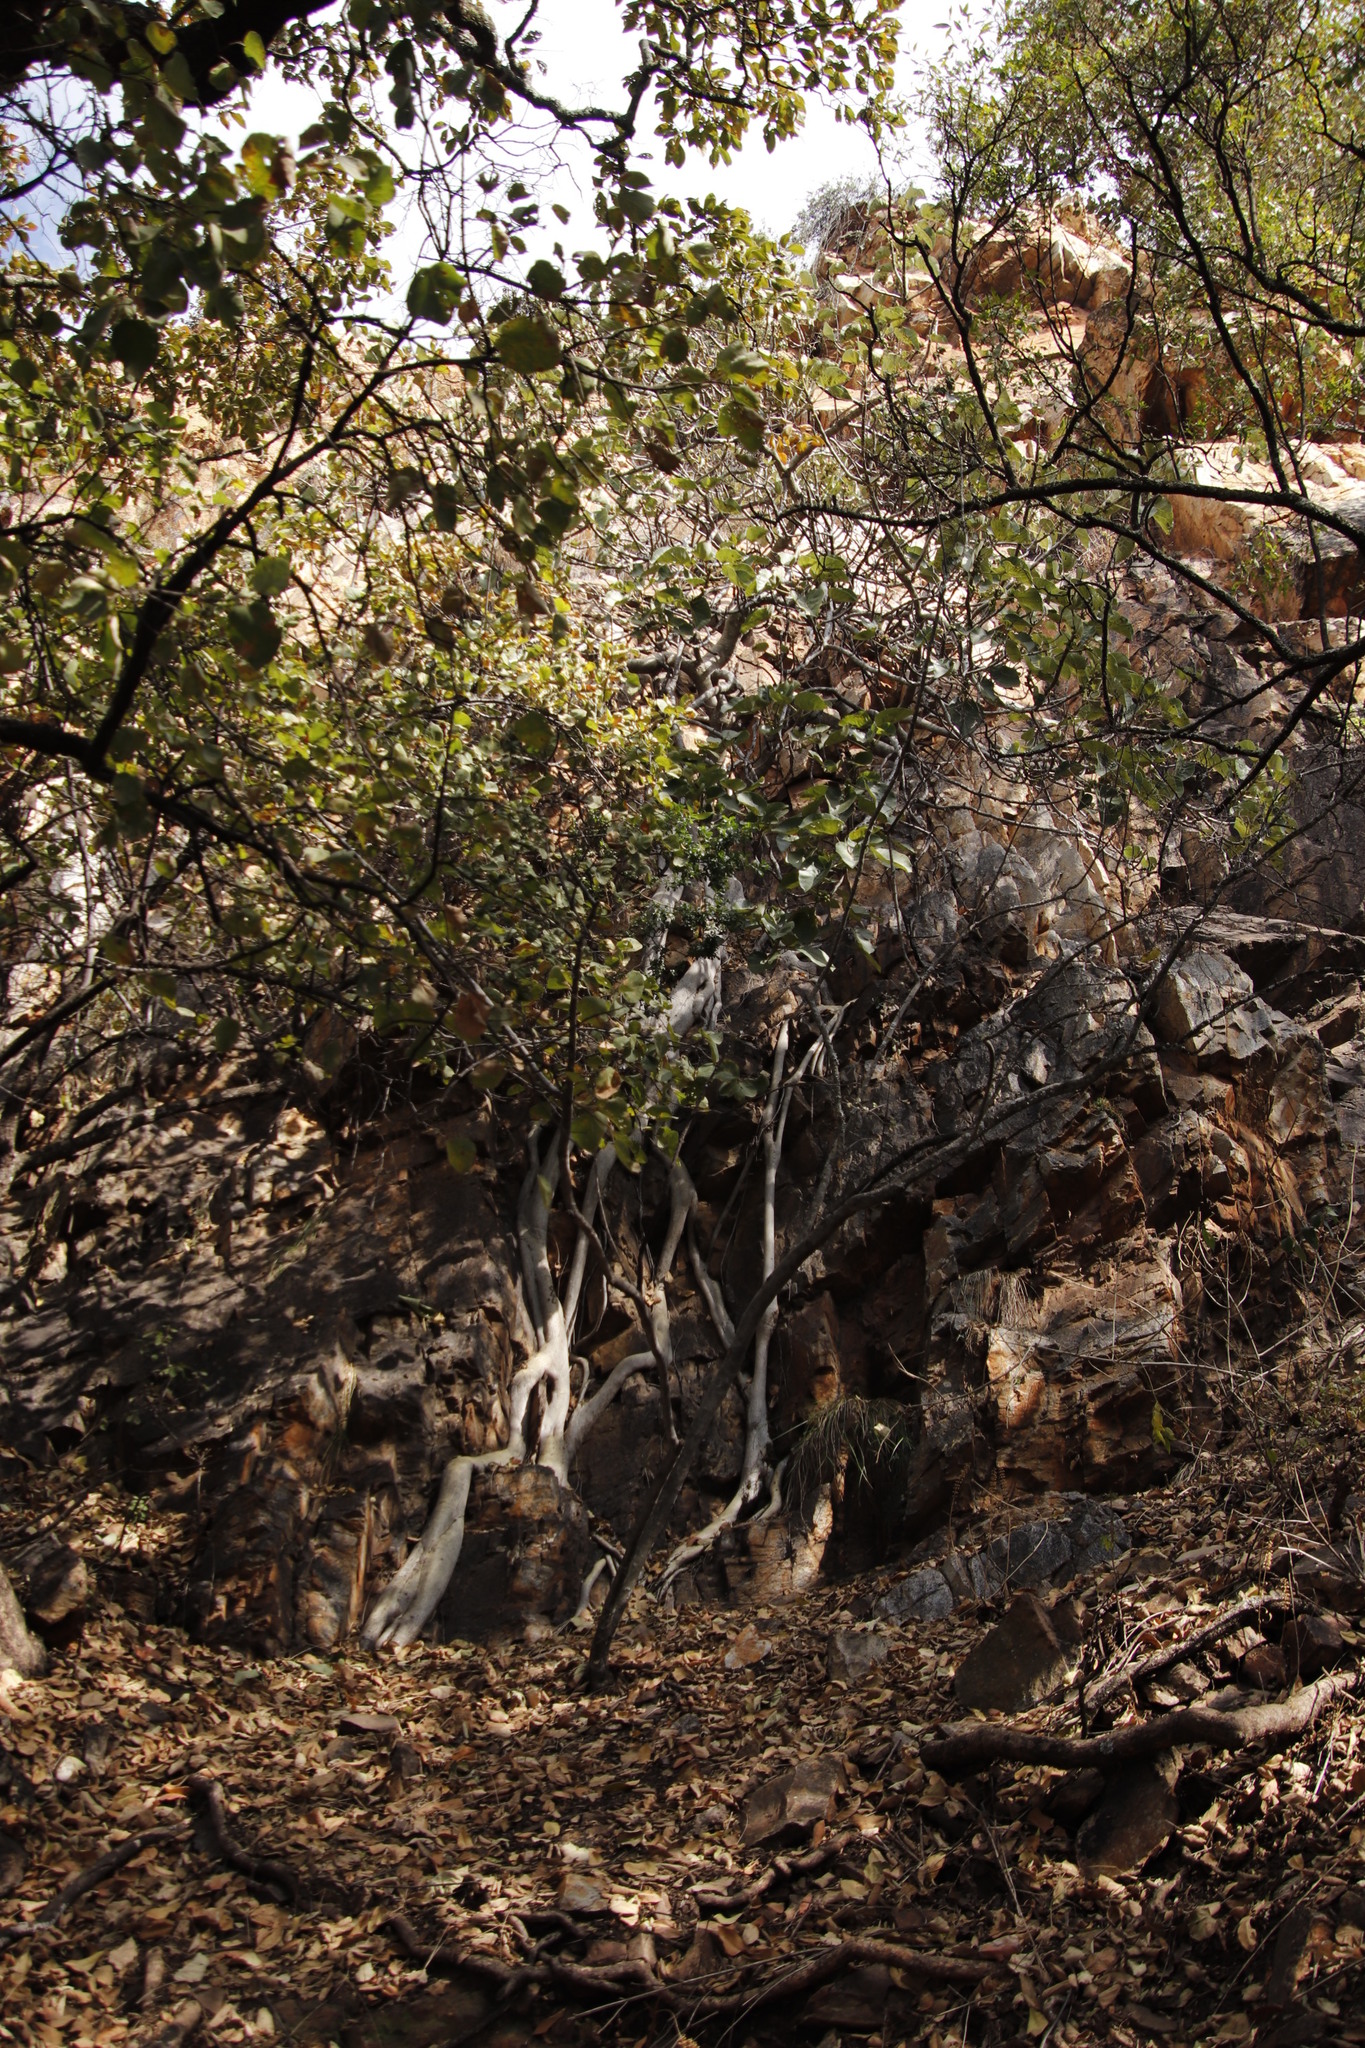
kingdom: Plantae
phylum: Tracheophyta
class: Magnoliopsida
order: Rosales
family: Moraceae
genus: Ficus
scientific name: Ficus abutilifolia
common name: Large-leaved rock fig
